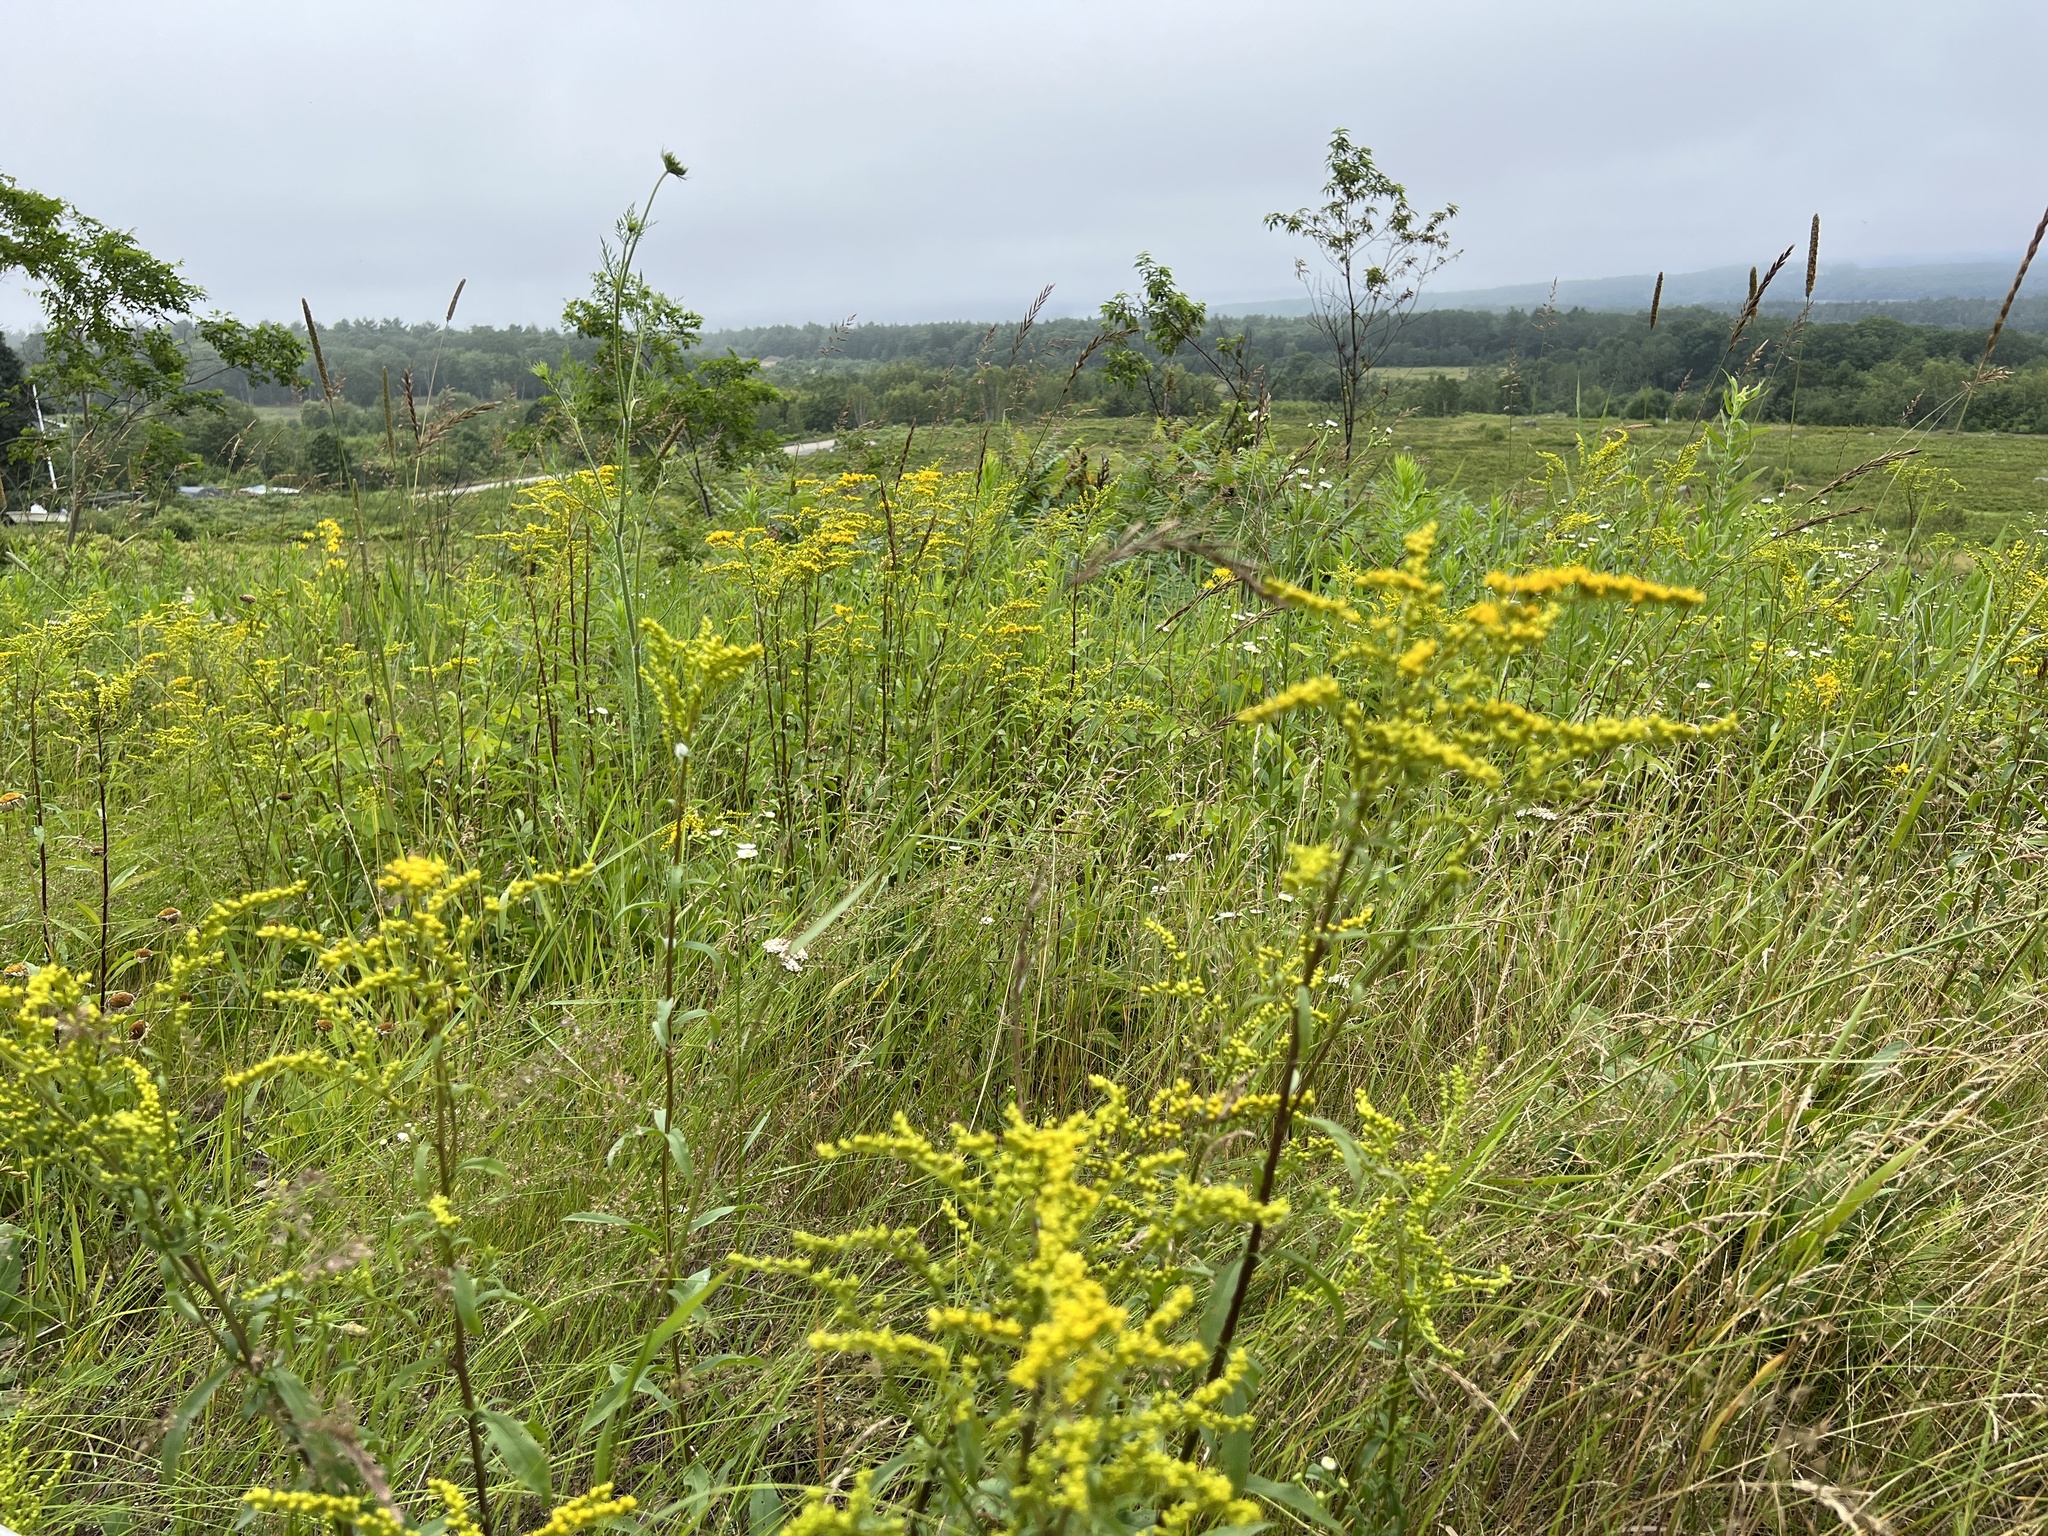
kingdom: Plantae
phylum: Tracheophyta
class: Magnoliopsida
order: Asterales
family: Asteraceae
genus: Solidago
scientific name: Solidago juncea
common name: Early goldenrod
